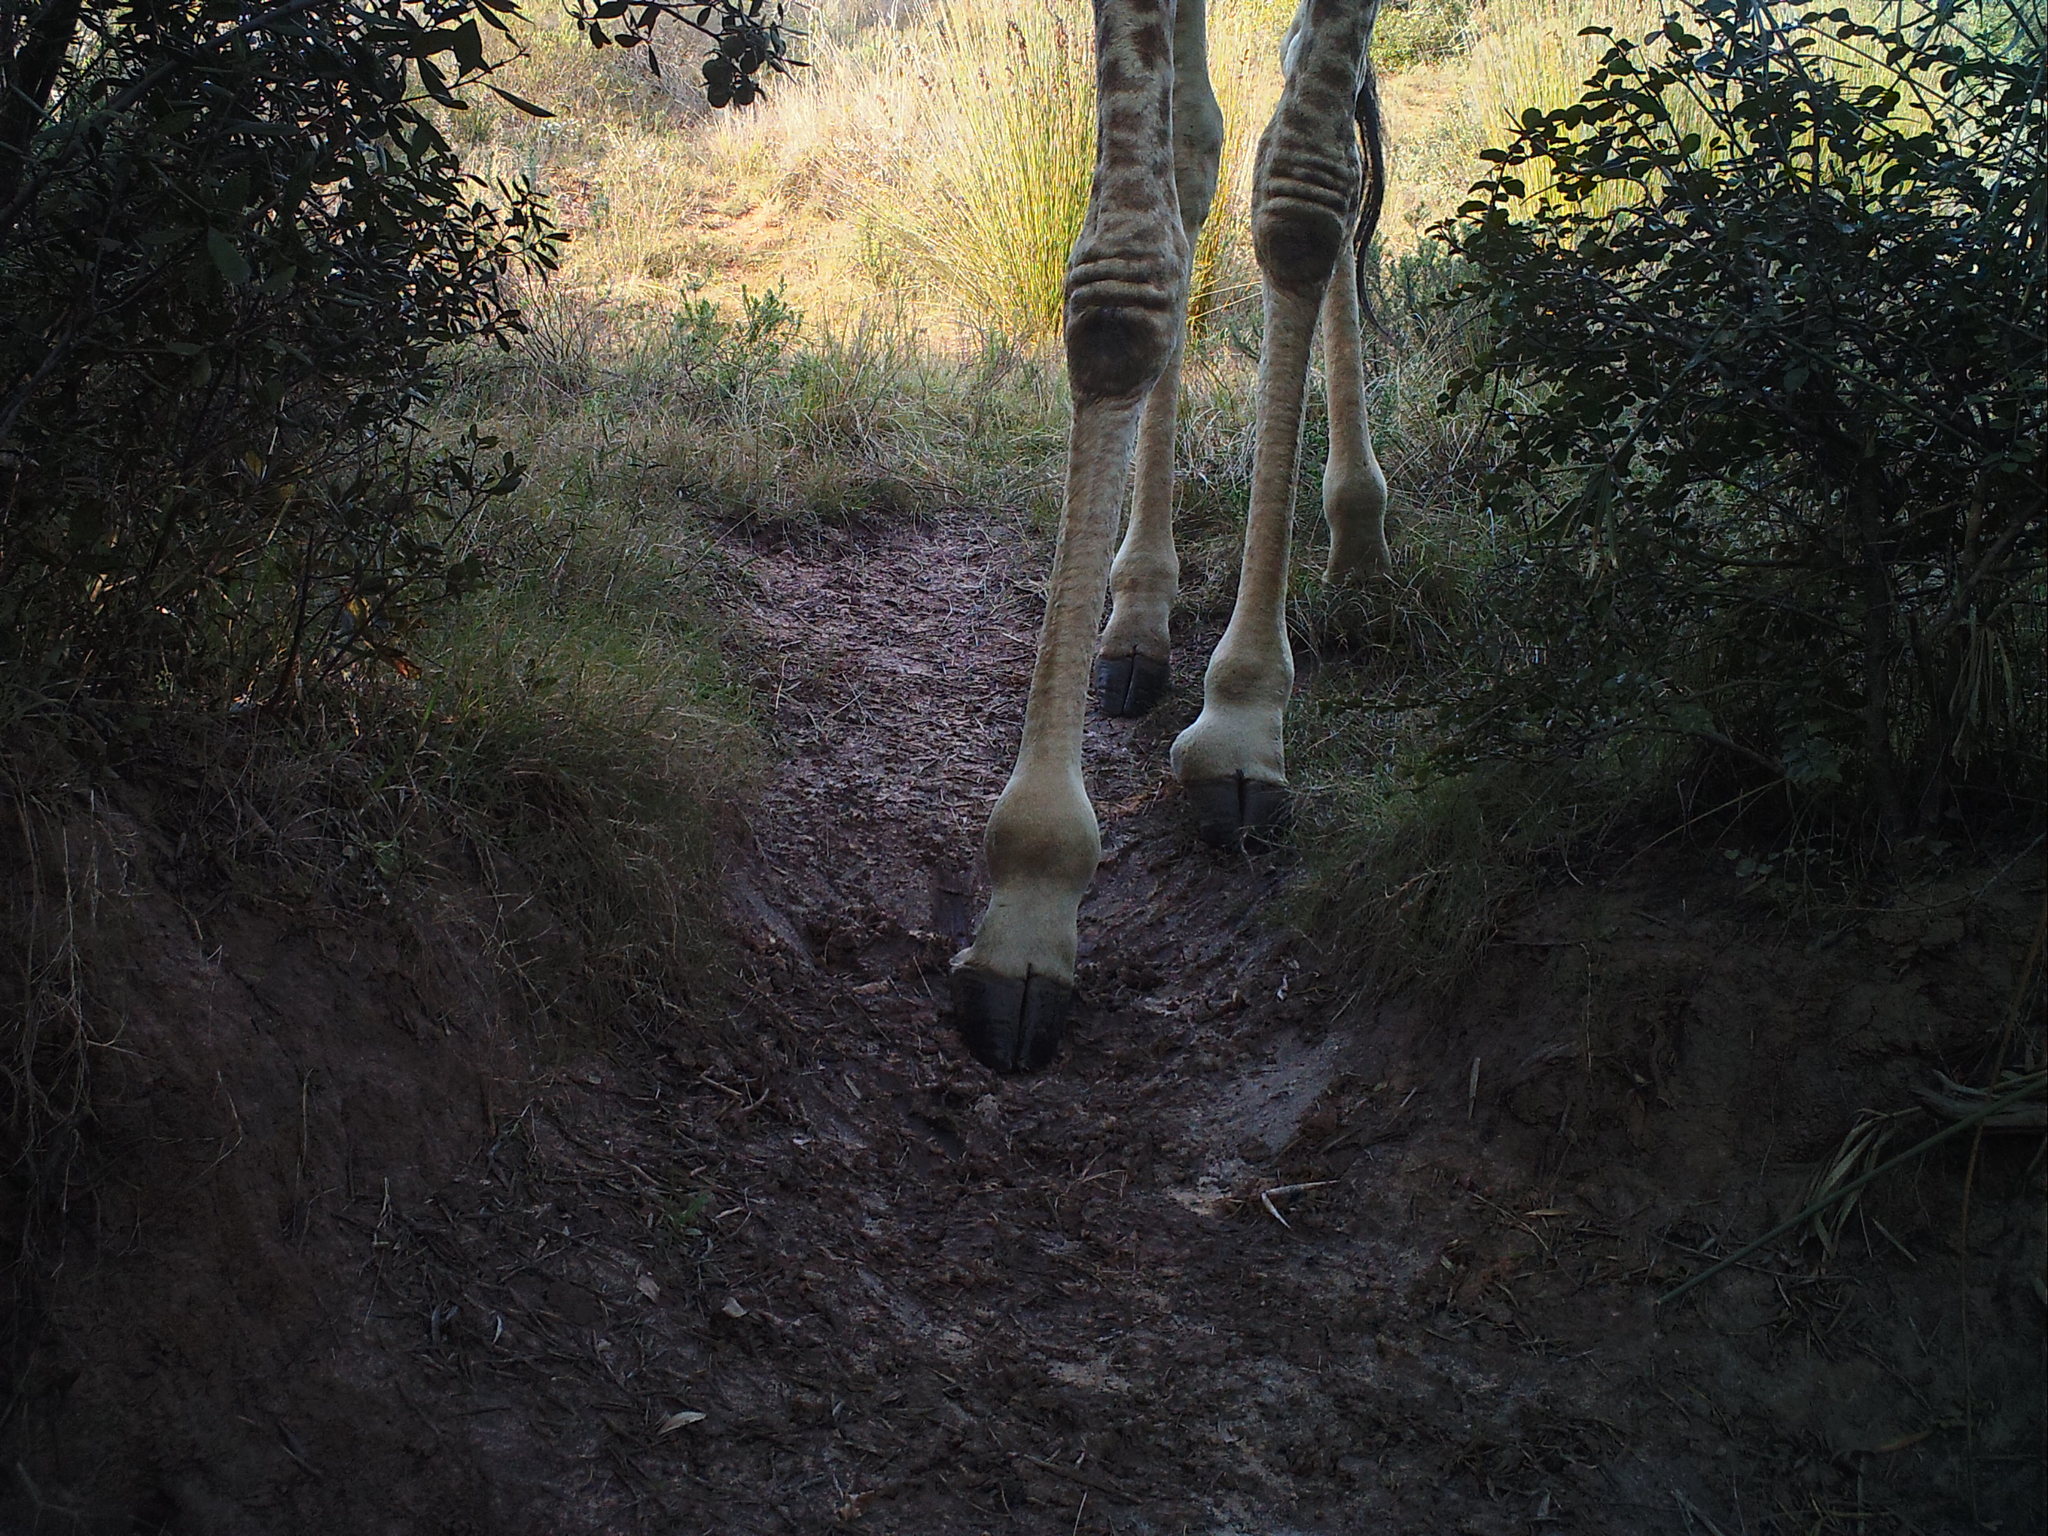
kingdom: Animalia
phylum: Chordata
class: Mammalia
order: Artiodactyla
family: Giraffidae
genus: Giraffa
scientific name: Giraffa giraffa
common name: Southern giraffe
